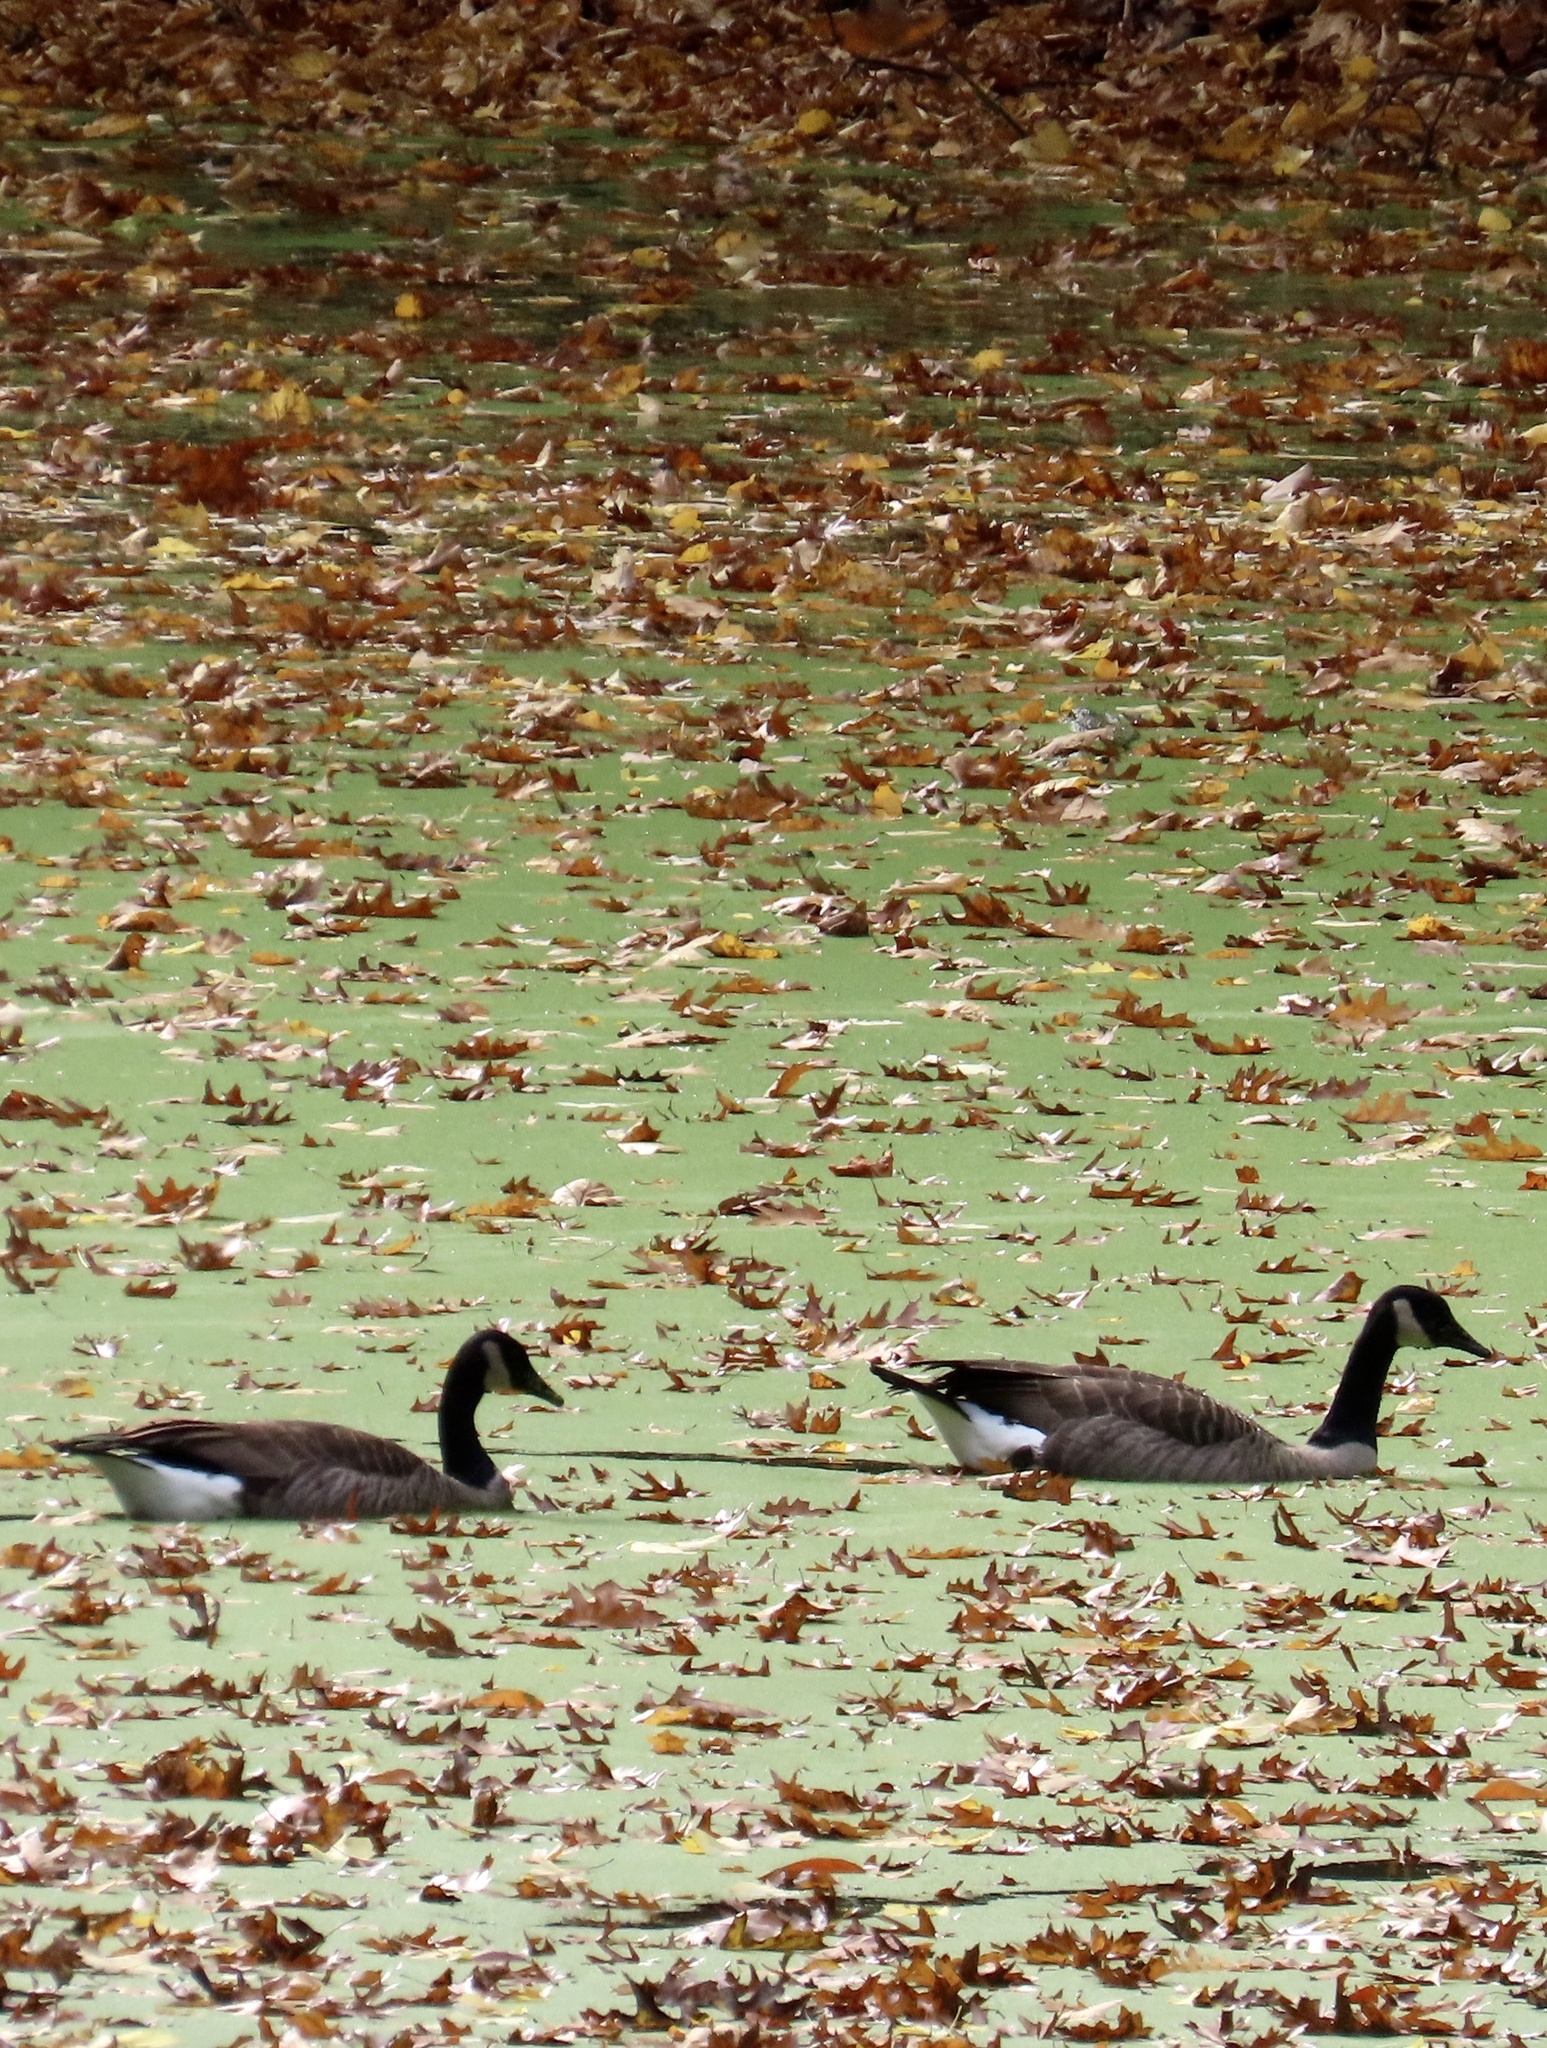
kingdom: Animalia
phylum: Chordata
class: Aves
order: Anseriformes
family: Anatidae
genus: Branta
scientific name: Branta canadensis
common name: Canada goose
